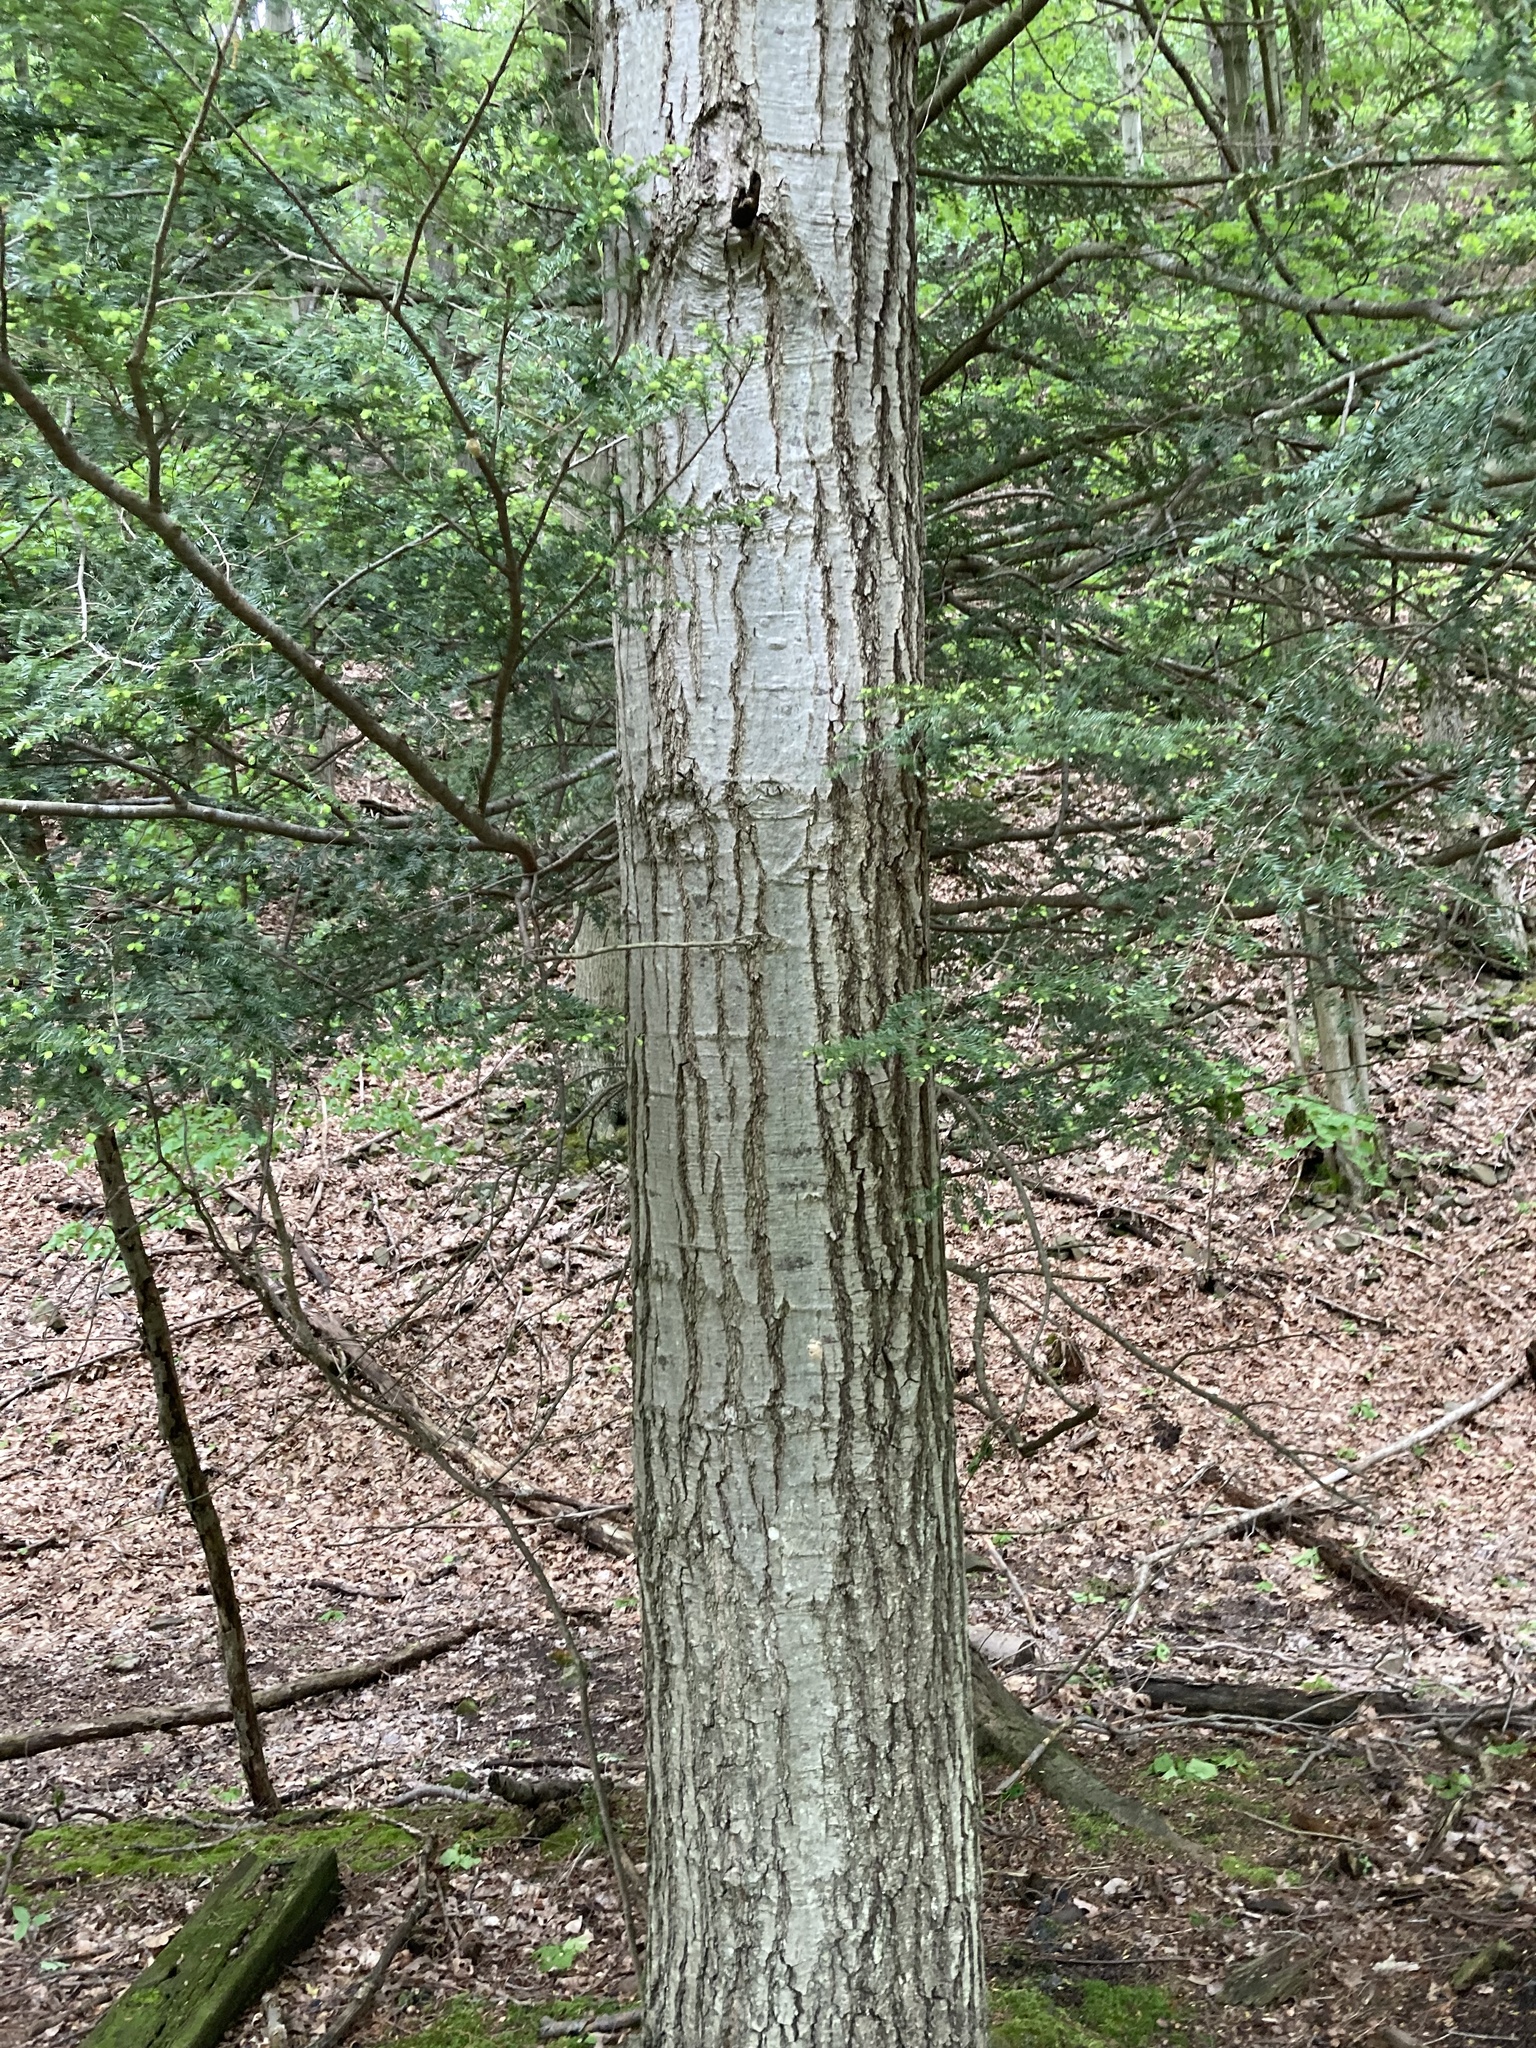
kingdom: Plantae
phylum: Tracheophyta
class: Pinopsida
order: Pinales
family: Pinaceae
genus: Tsuga
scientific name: Tsuga canadensis
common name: Eastern hemlock
